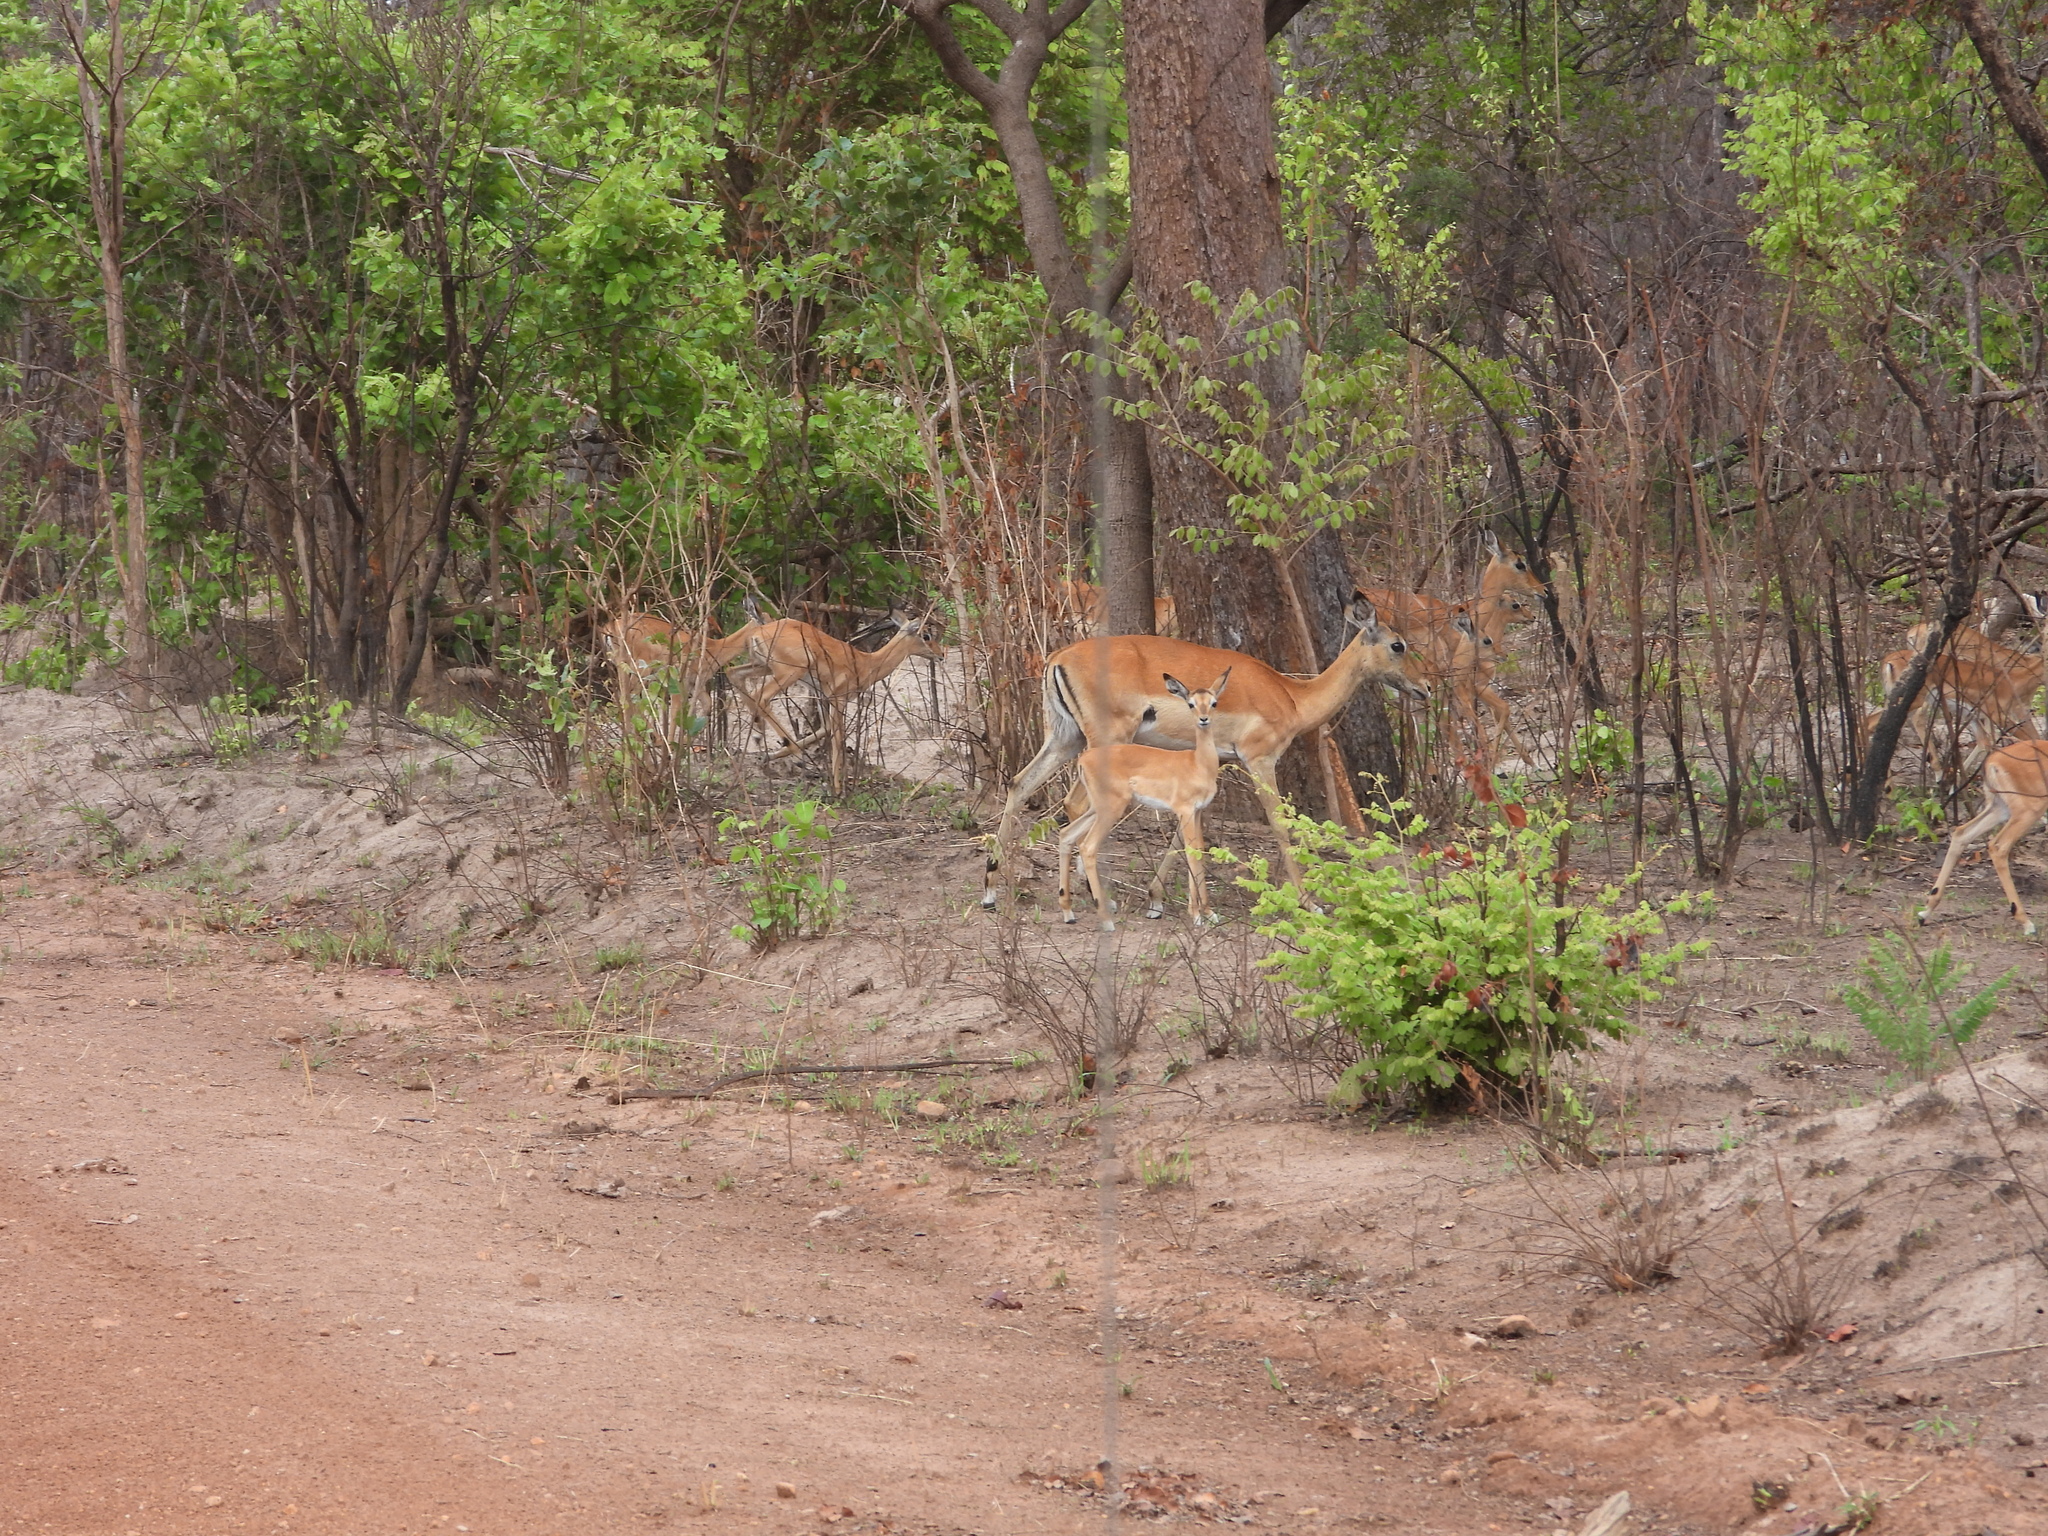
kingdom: Animalia
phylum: Chordata
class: Mammalia
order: Artiodactyla
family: Bovidae
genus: Aepyceros
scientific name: Aepyceros melampus
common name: Impala
